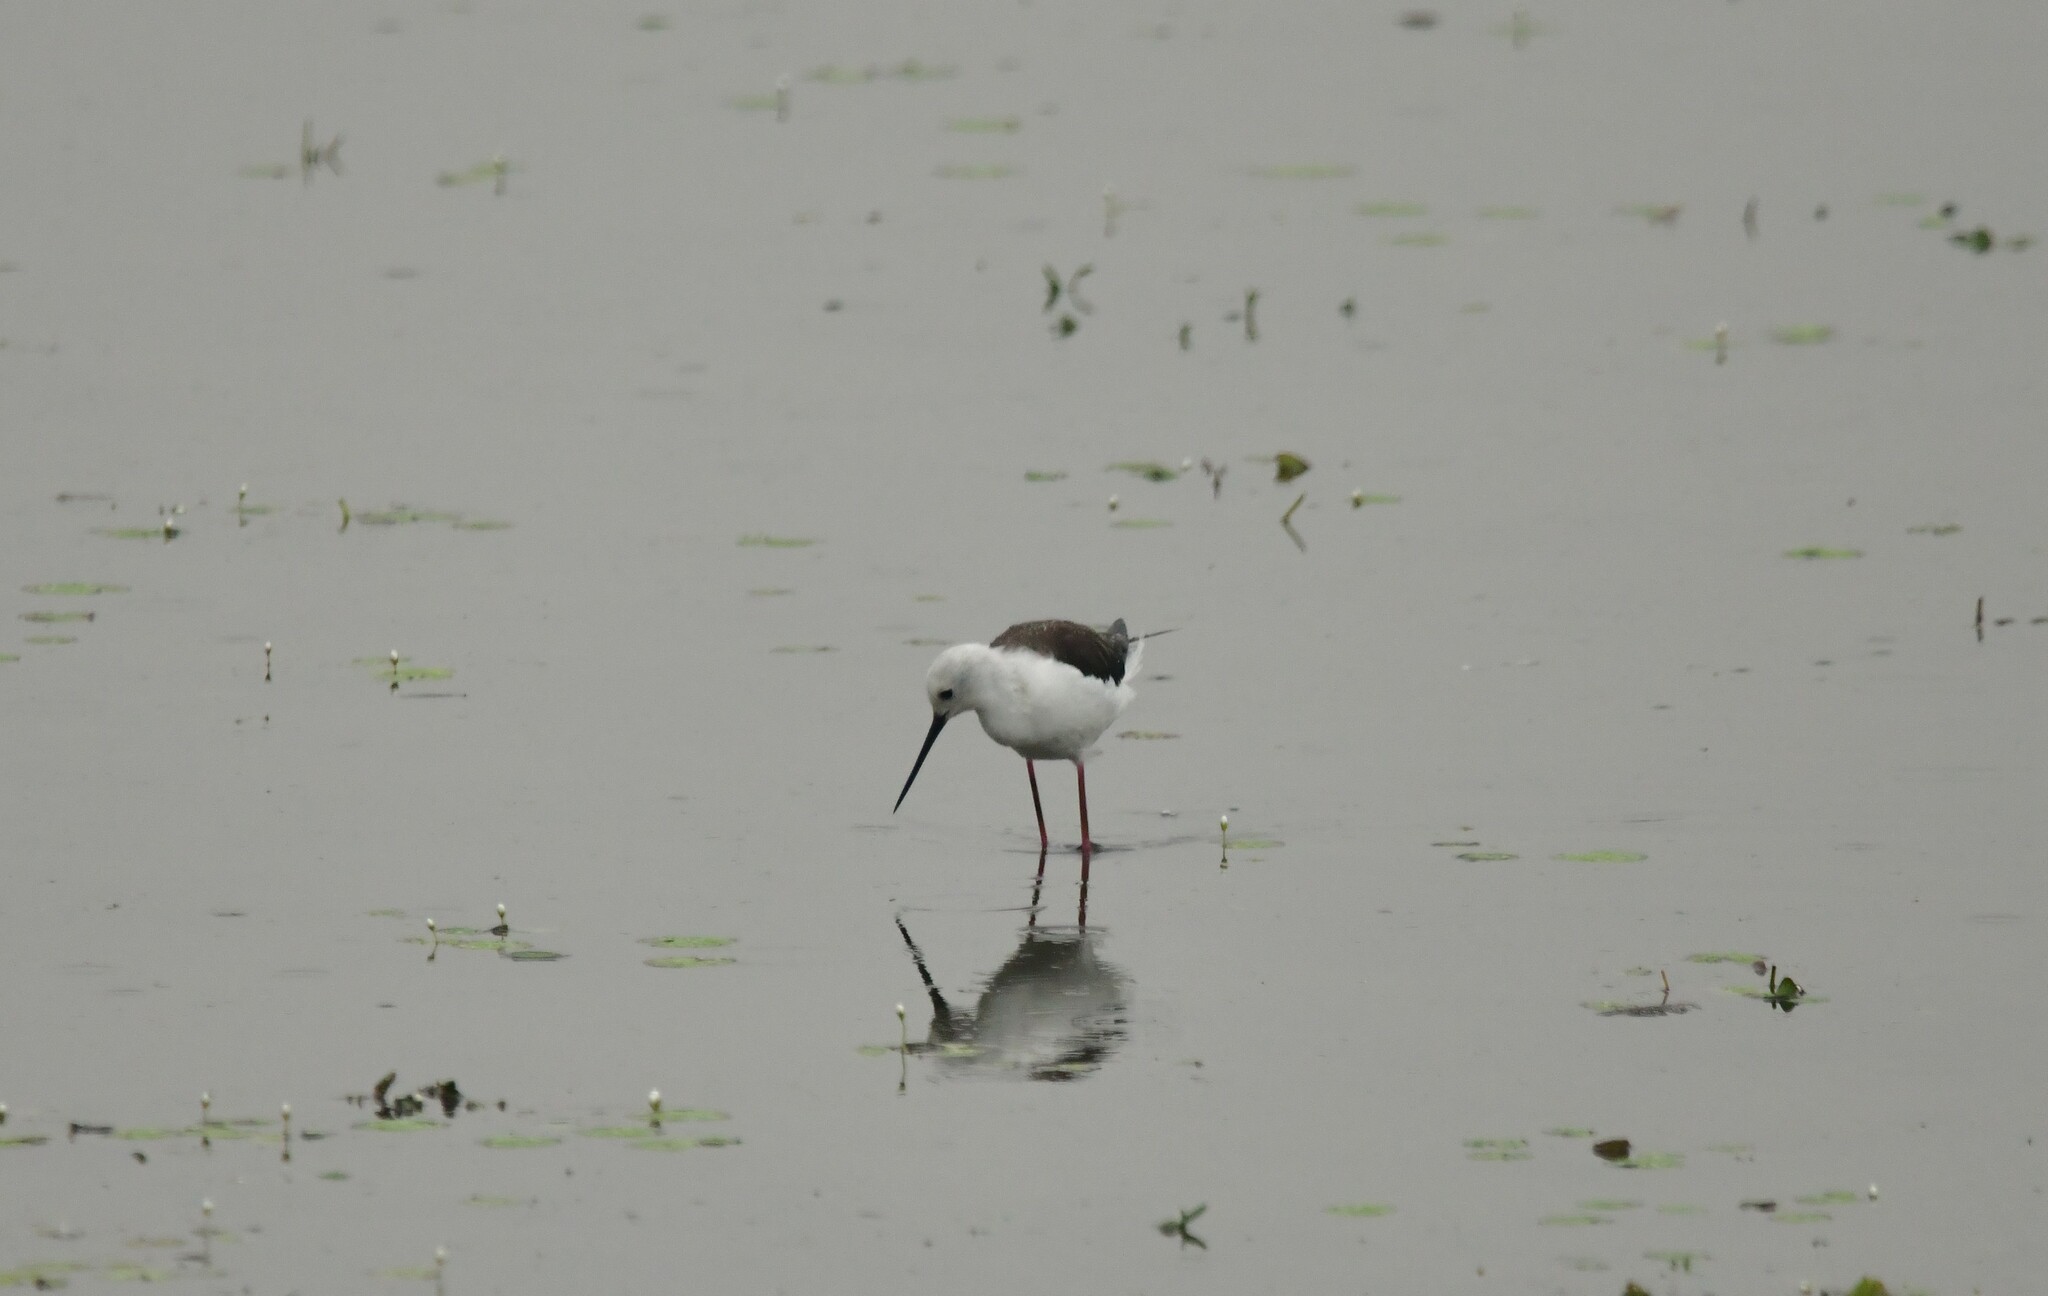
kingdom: Animalia
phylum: Chordata
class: Aves
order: Charadriiformes
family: Recurvirostridae
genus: Himantopus
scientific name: Himantopus himantopus
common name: Black-winged stilt
